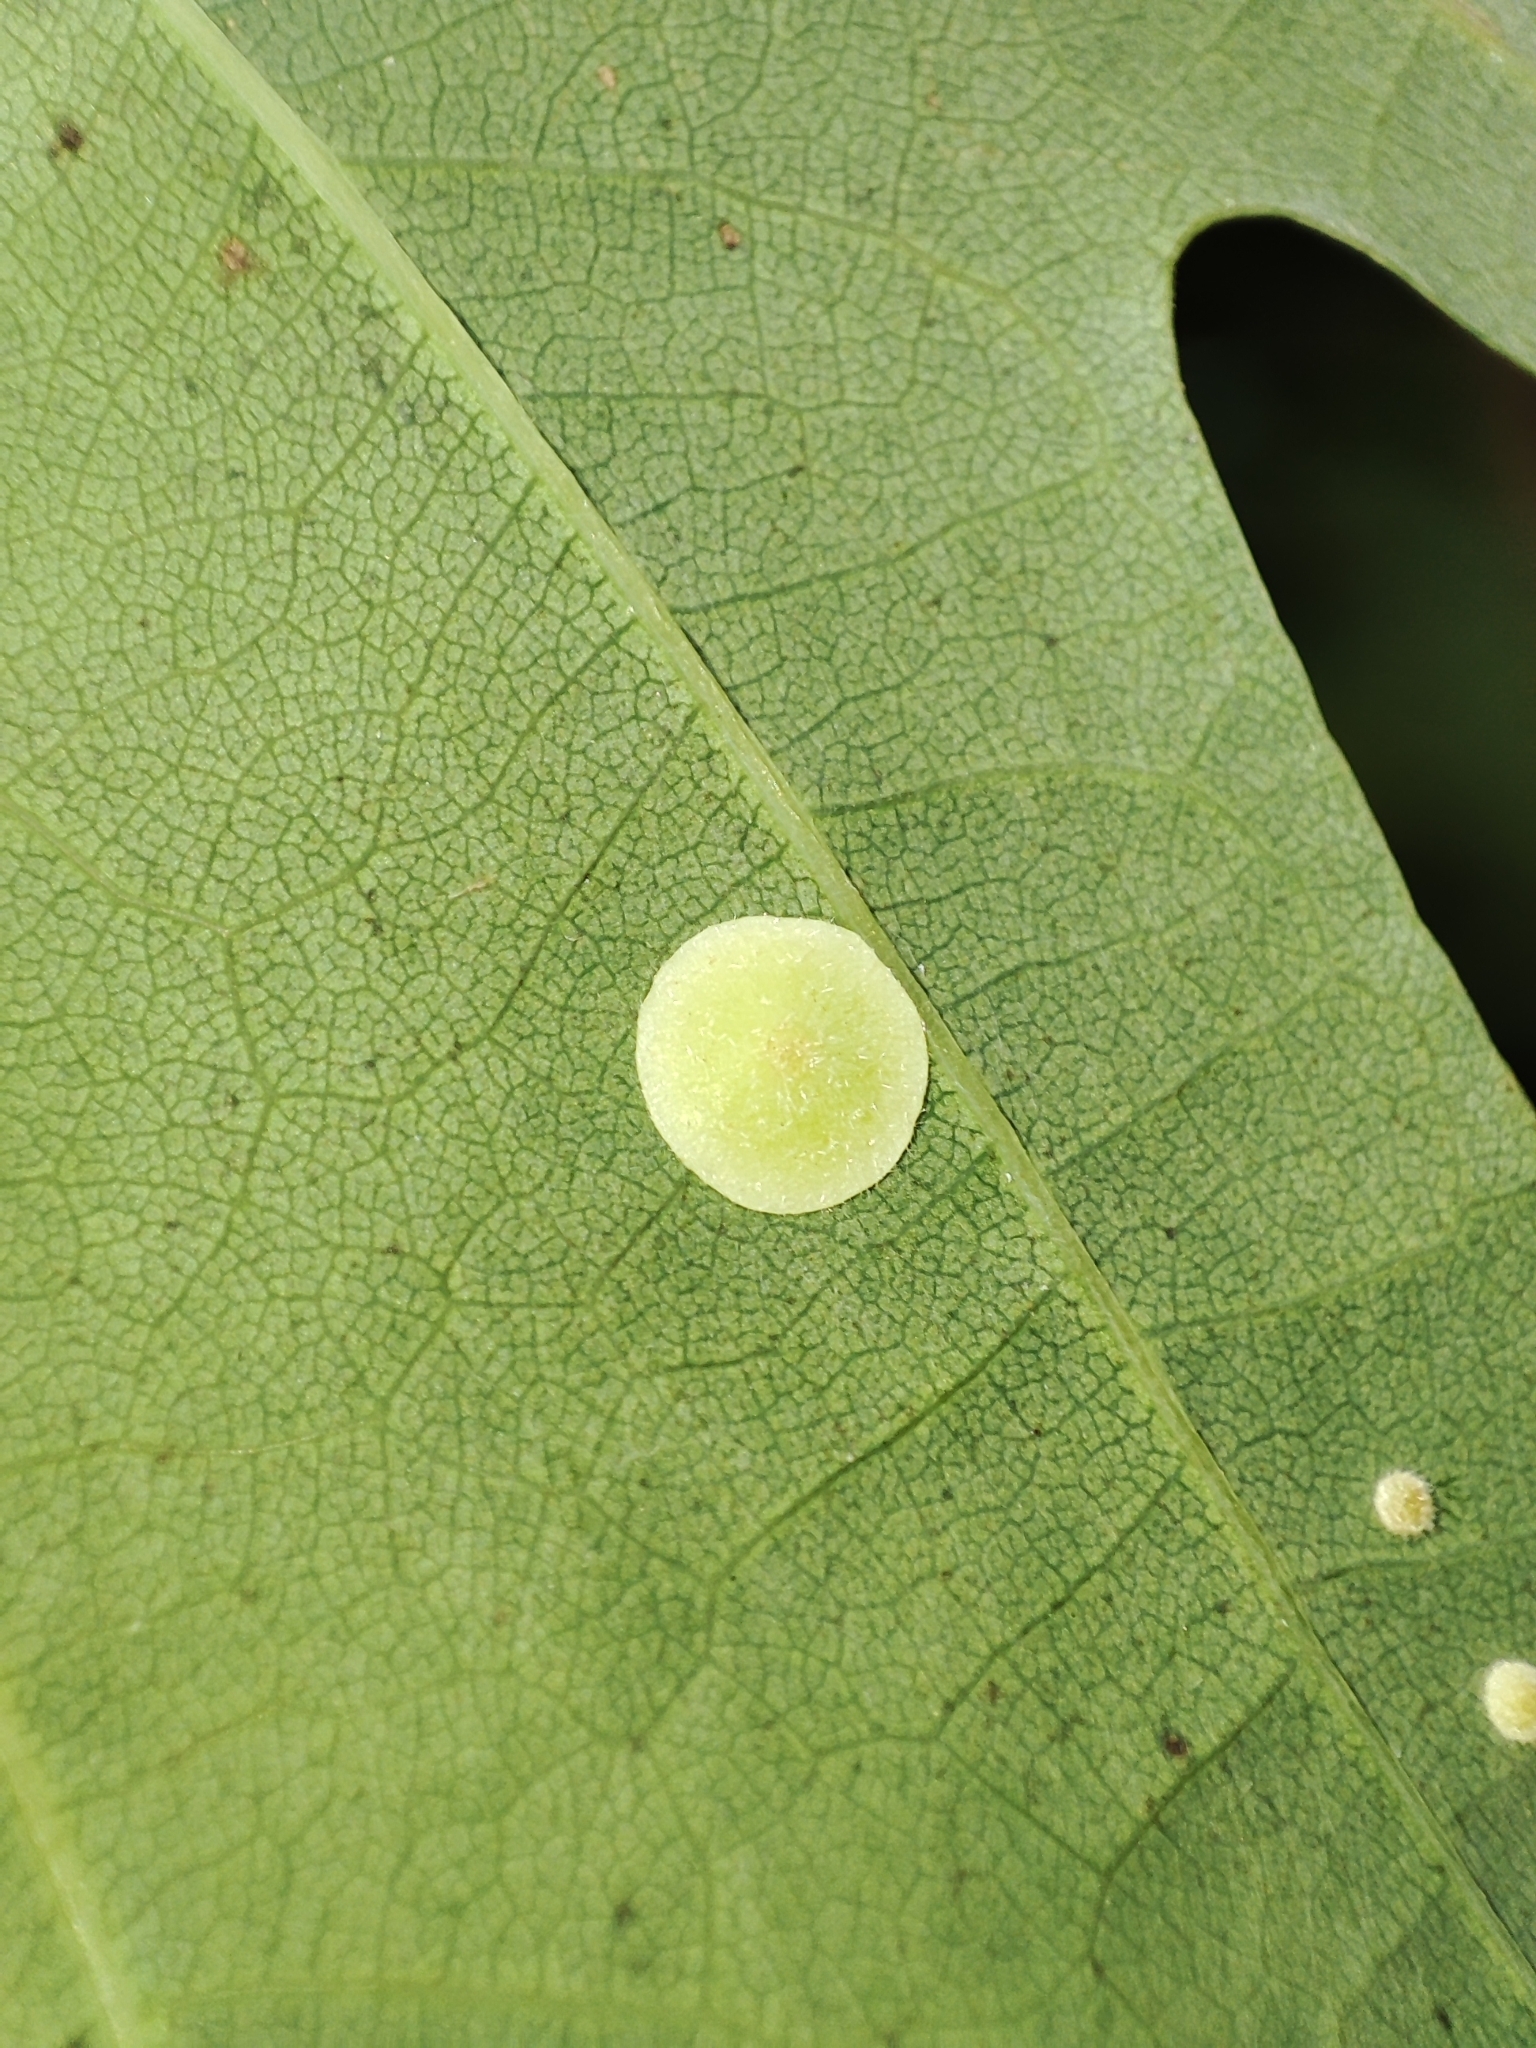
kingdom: Animalia
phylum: Arthropoda
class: Insecta
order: Hymenoptera
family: Cynipidae
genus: Neuroterus
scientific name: Neuroterus quercusbaccarum
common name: Common spangle gall
